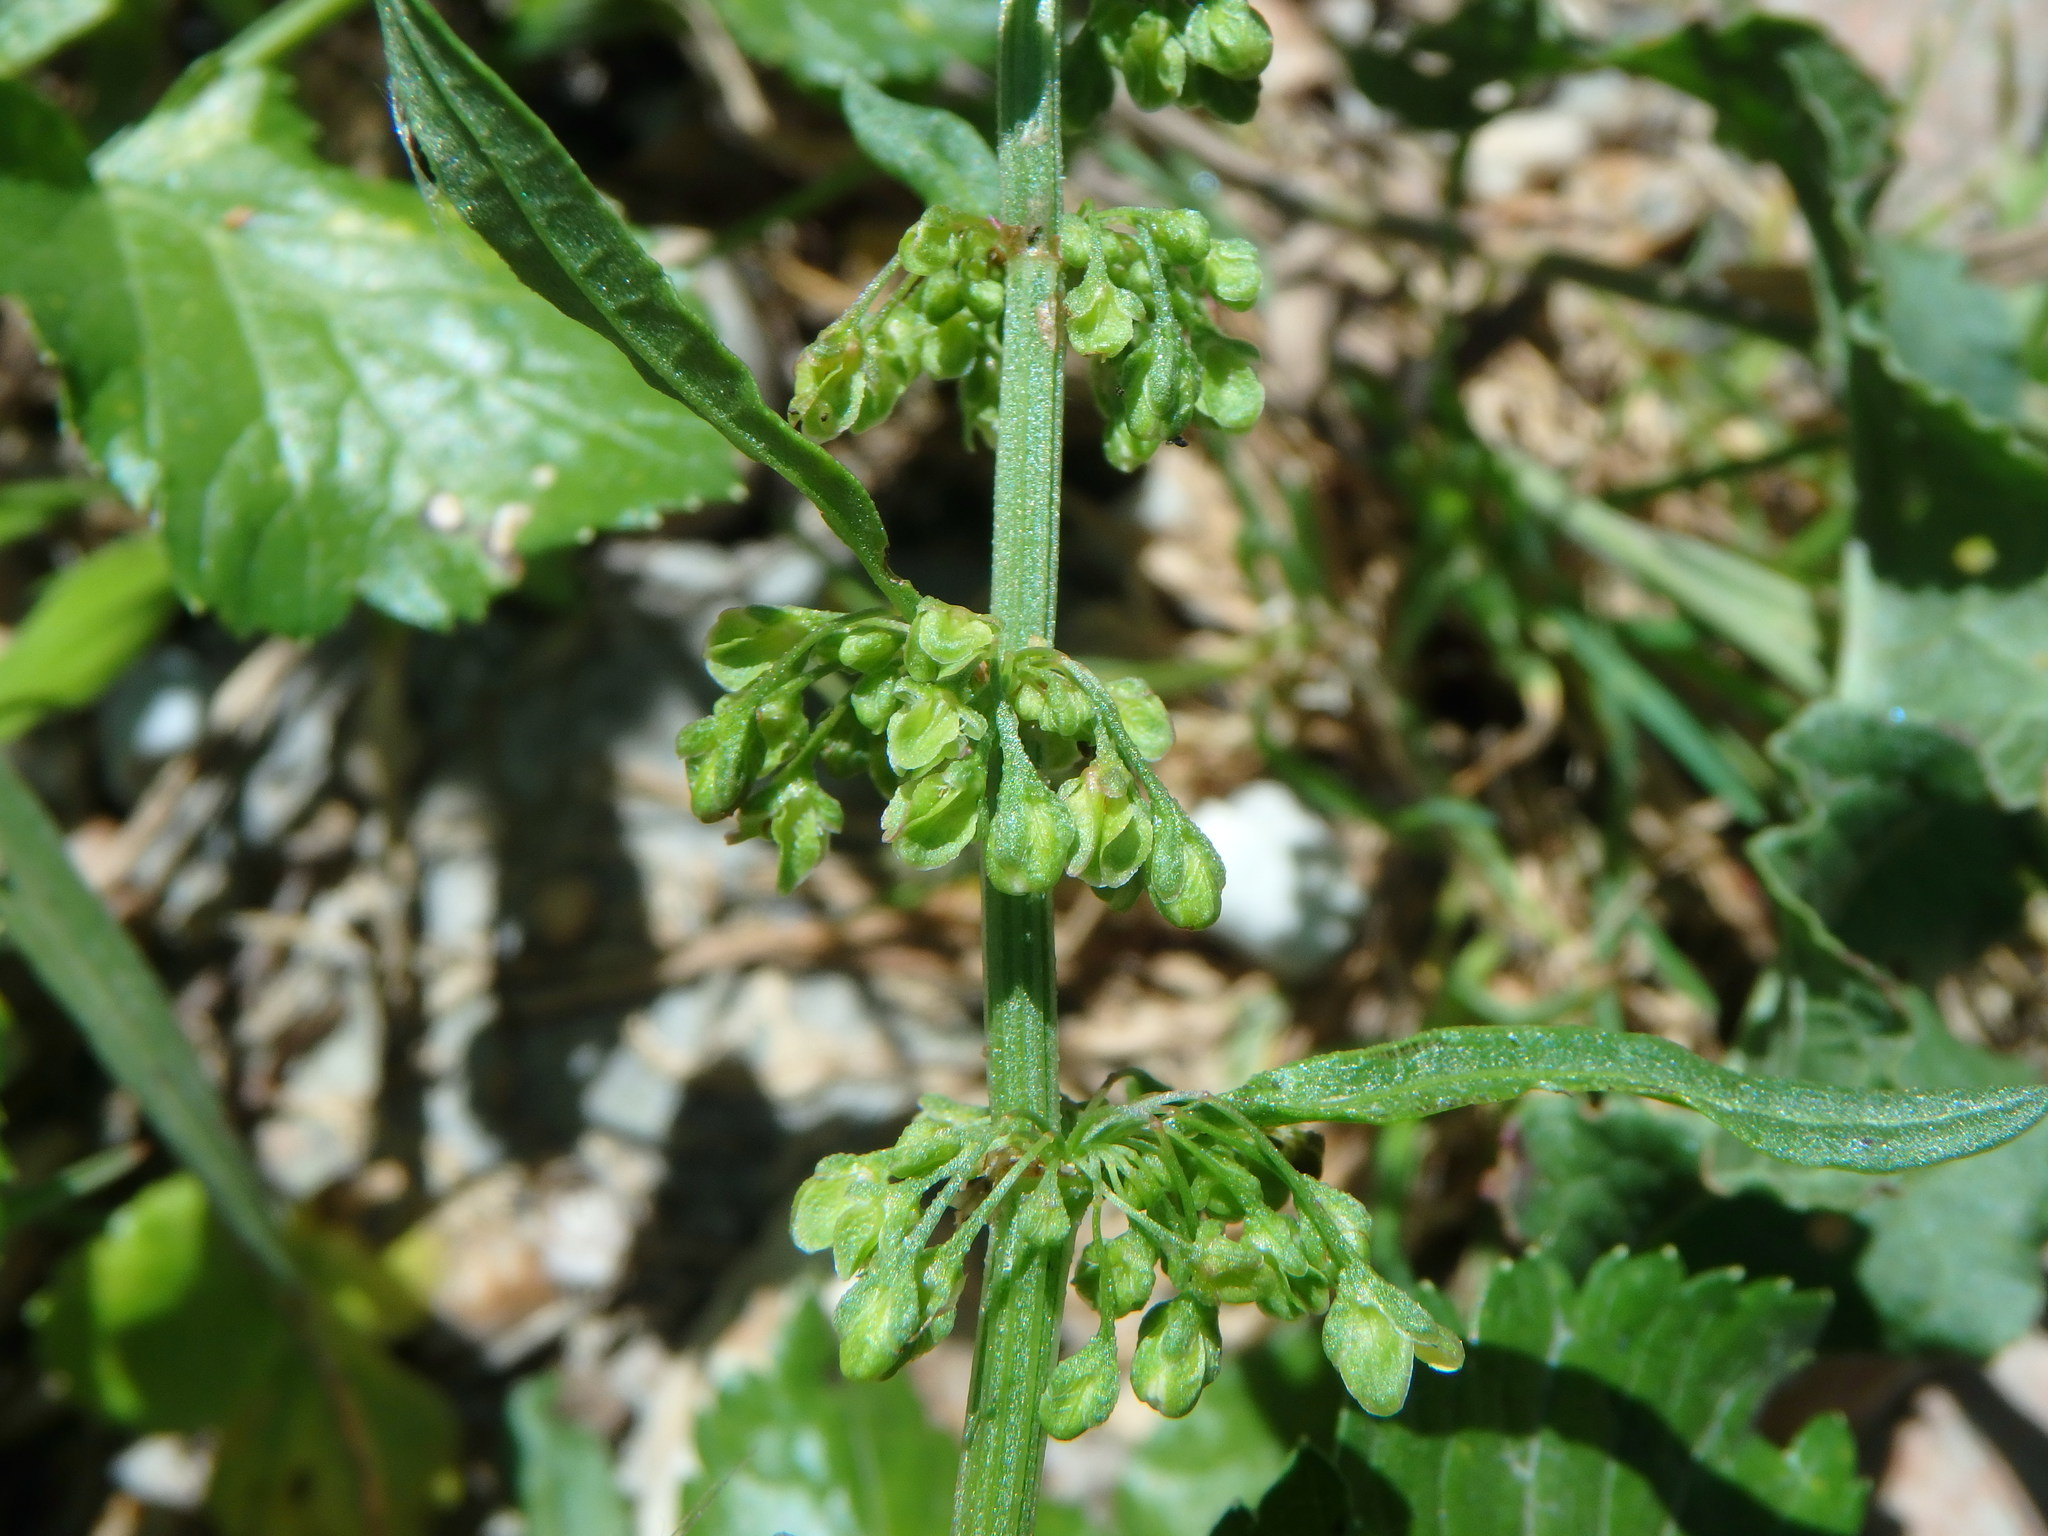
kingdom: Plantae
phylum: Tracheophyta
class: Magnoliopsida
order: Caryophyllales
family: Polygonaceae
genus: Rumex
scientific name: Rumex crispus
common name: Curled dock
